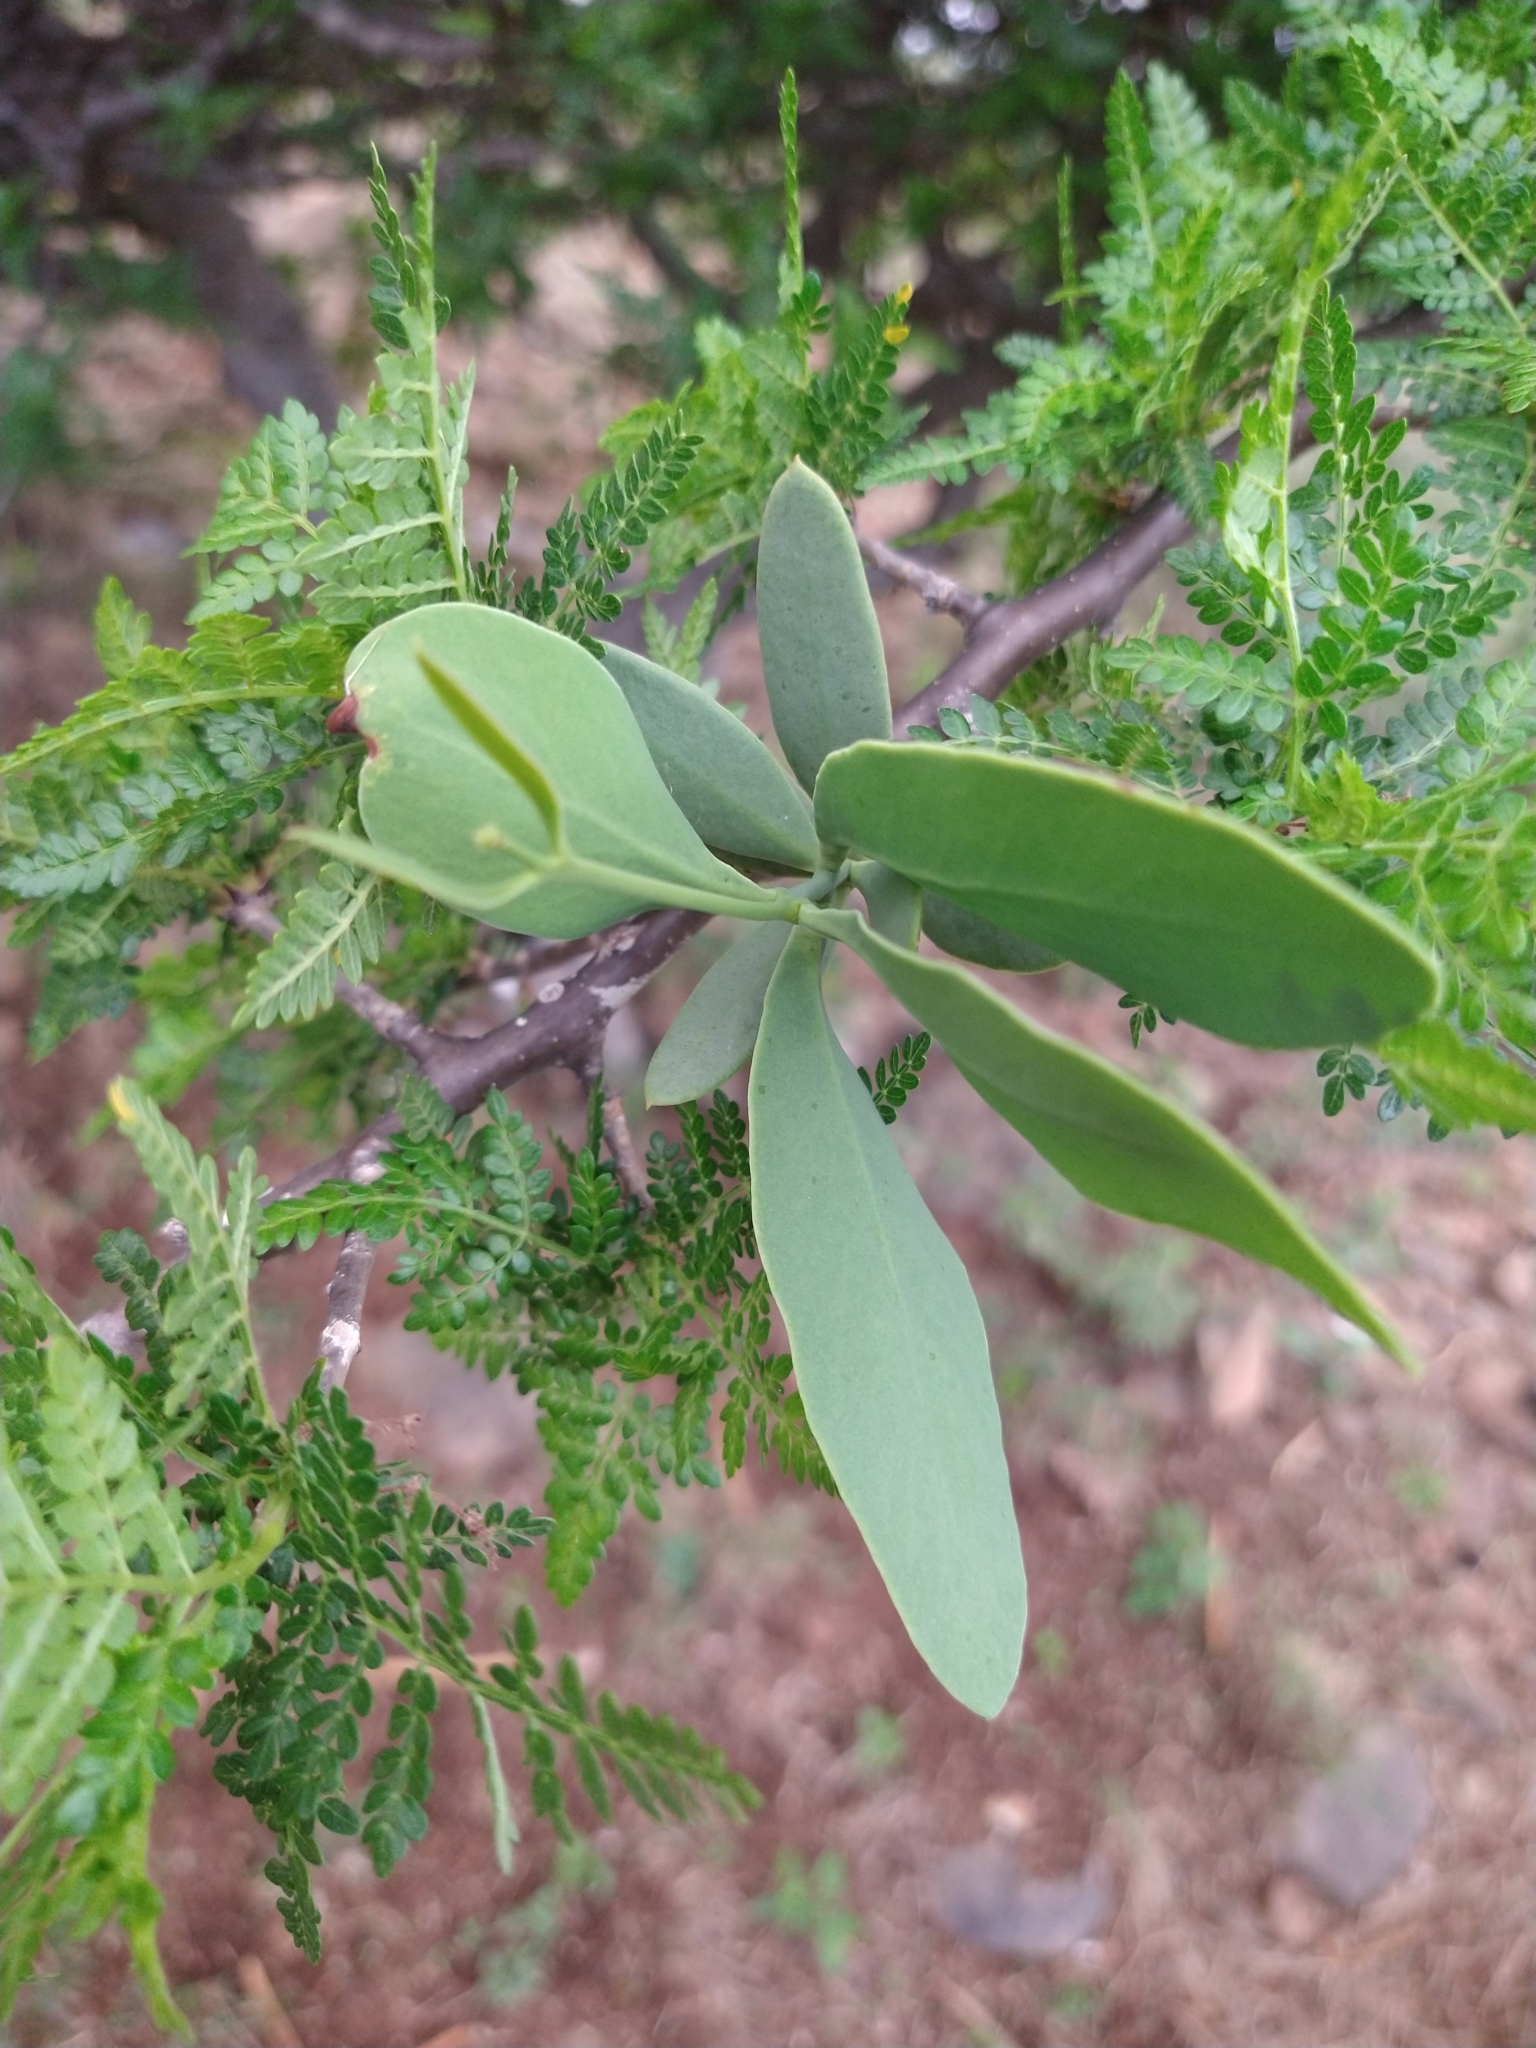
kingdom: Plantae
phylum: Tracheophyta
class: Magnoliopsida
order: Santalales
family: Loranthaceae
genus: Psittacanthus
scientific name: Psittacanthus calyculatus
